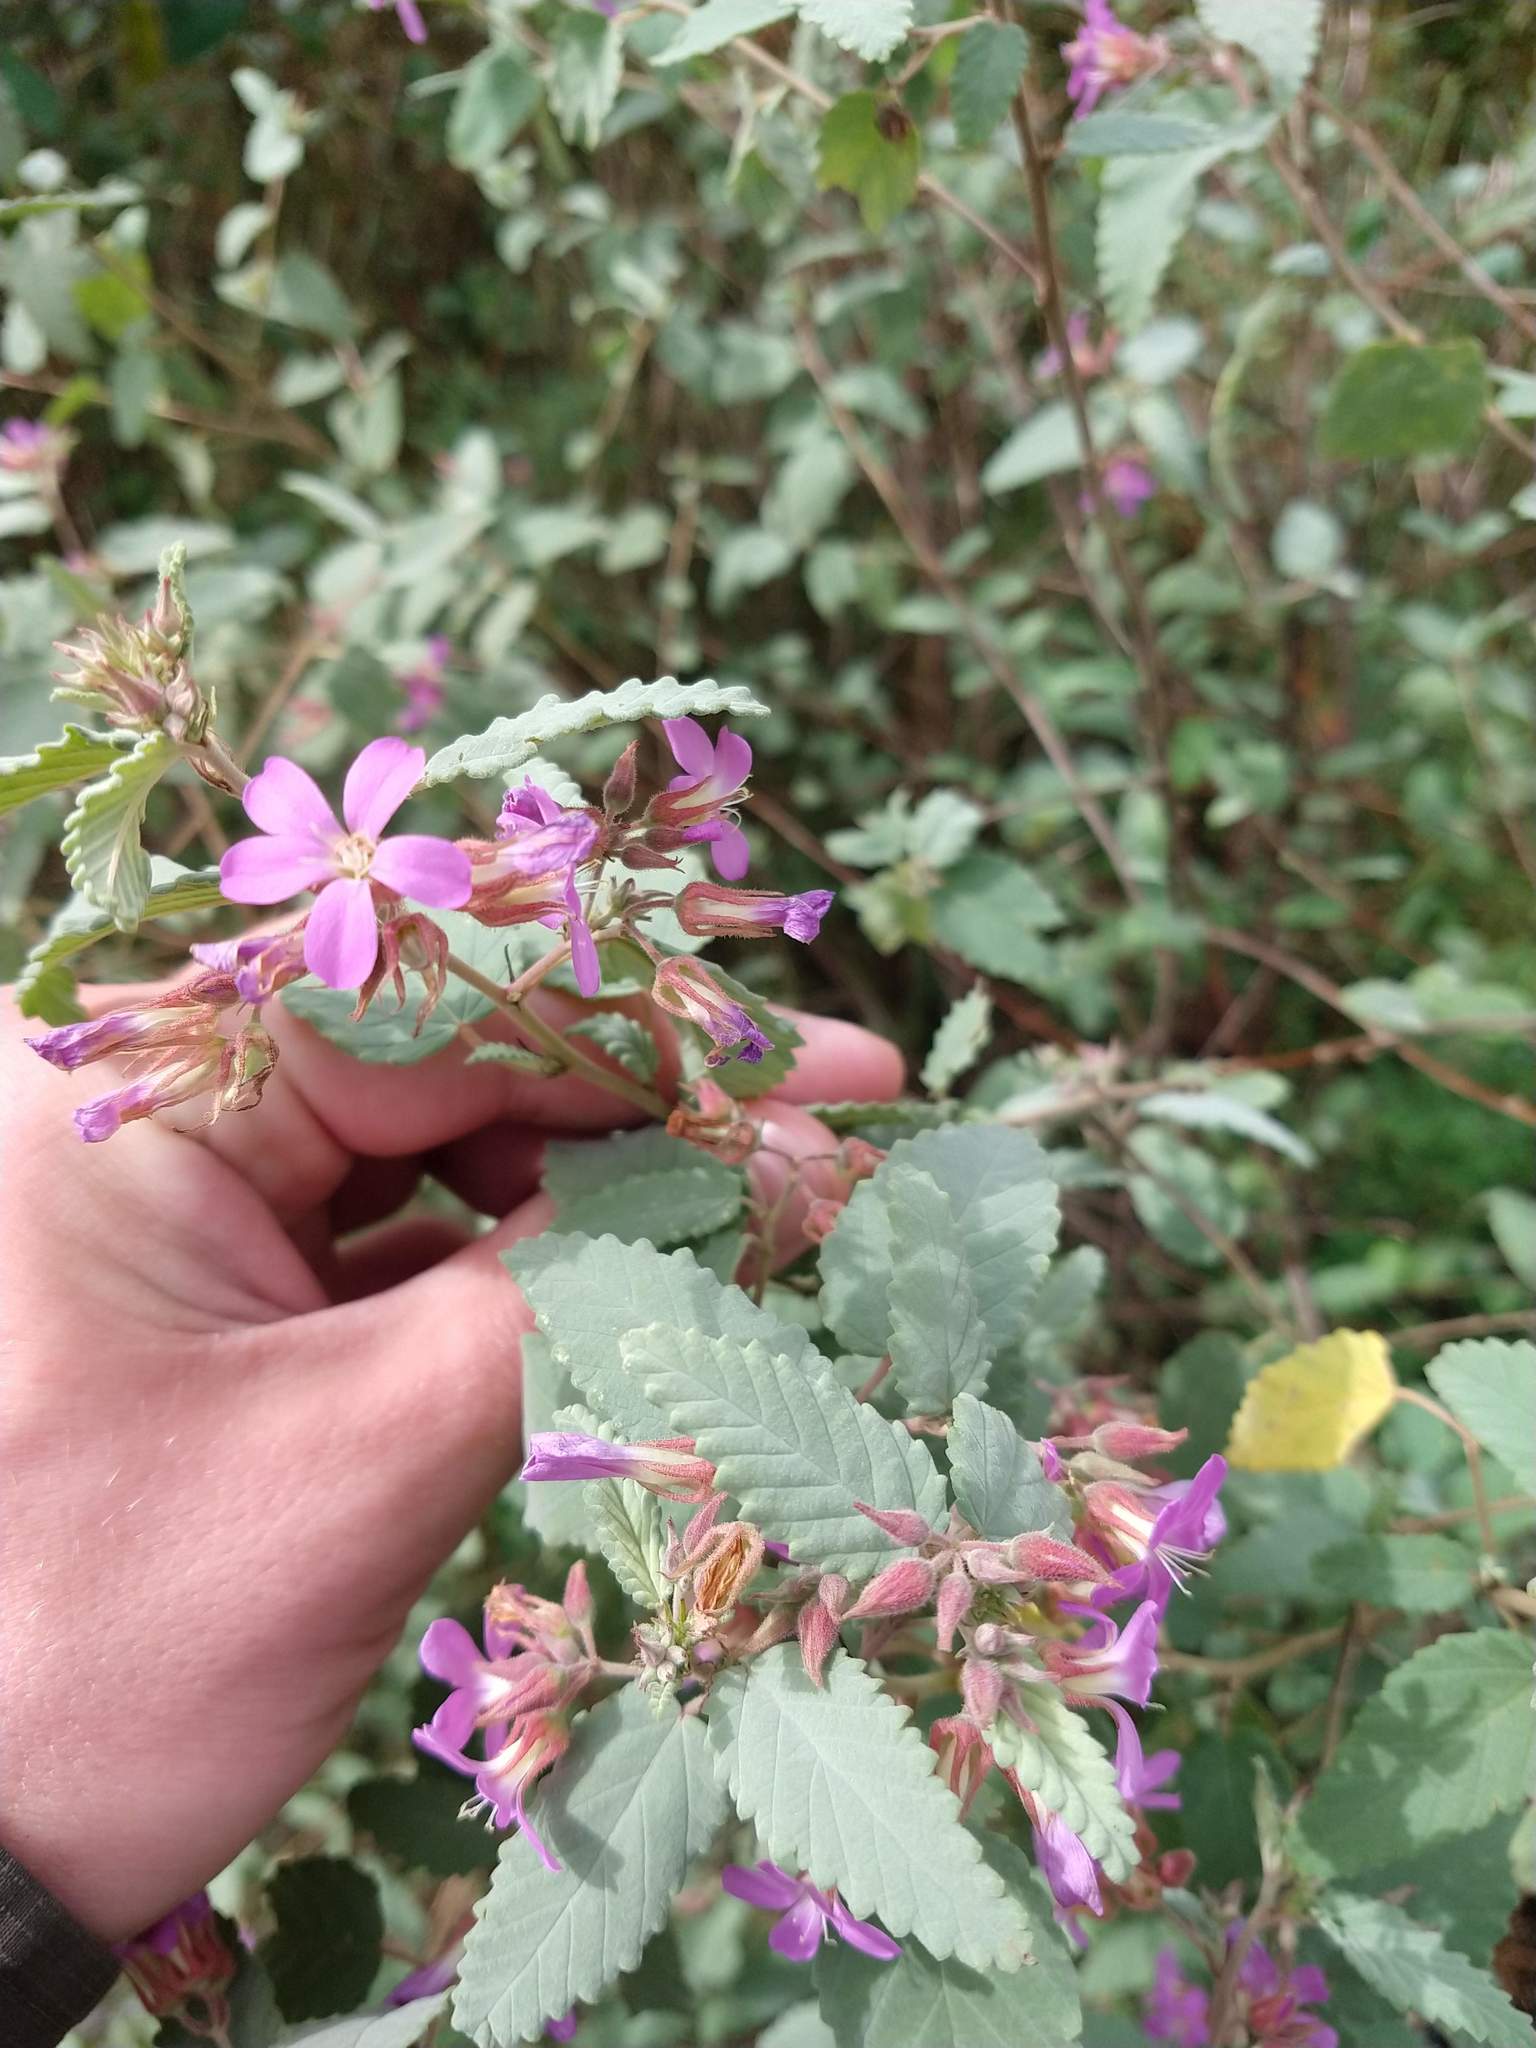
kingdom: Plantae
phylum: Tracheophyta
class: Magnoliopsida
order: Malvales
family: Malvaceae
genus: Melochia
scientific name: Melochia tomentosa
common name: Black torch
